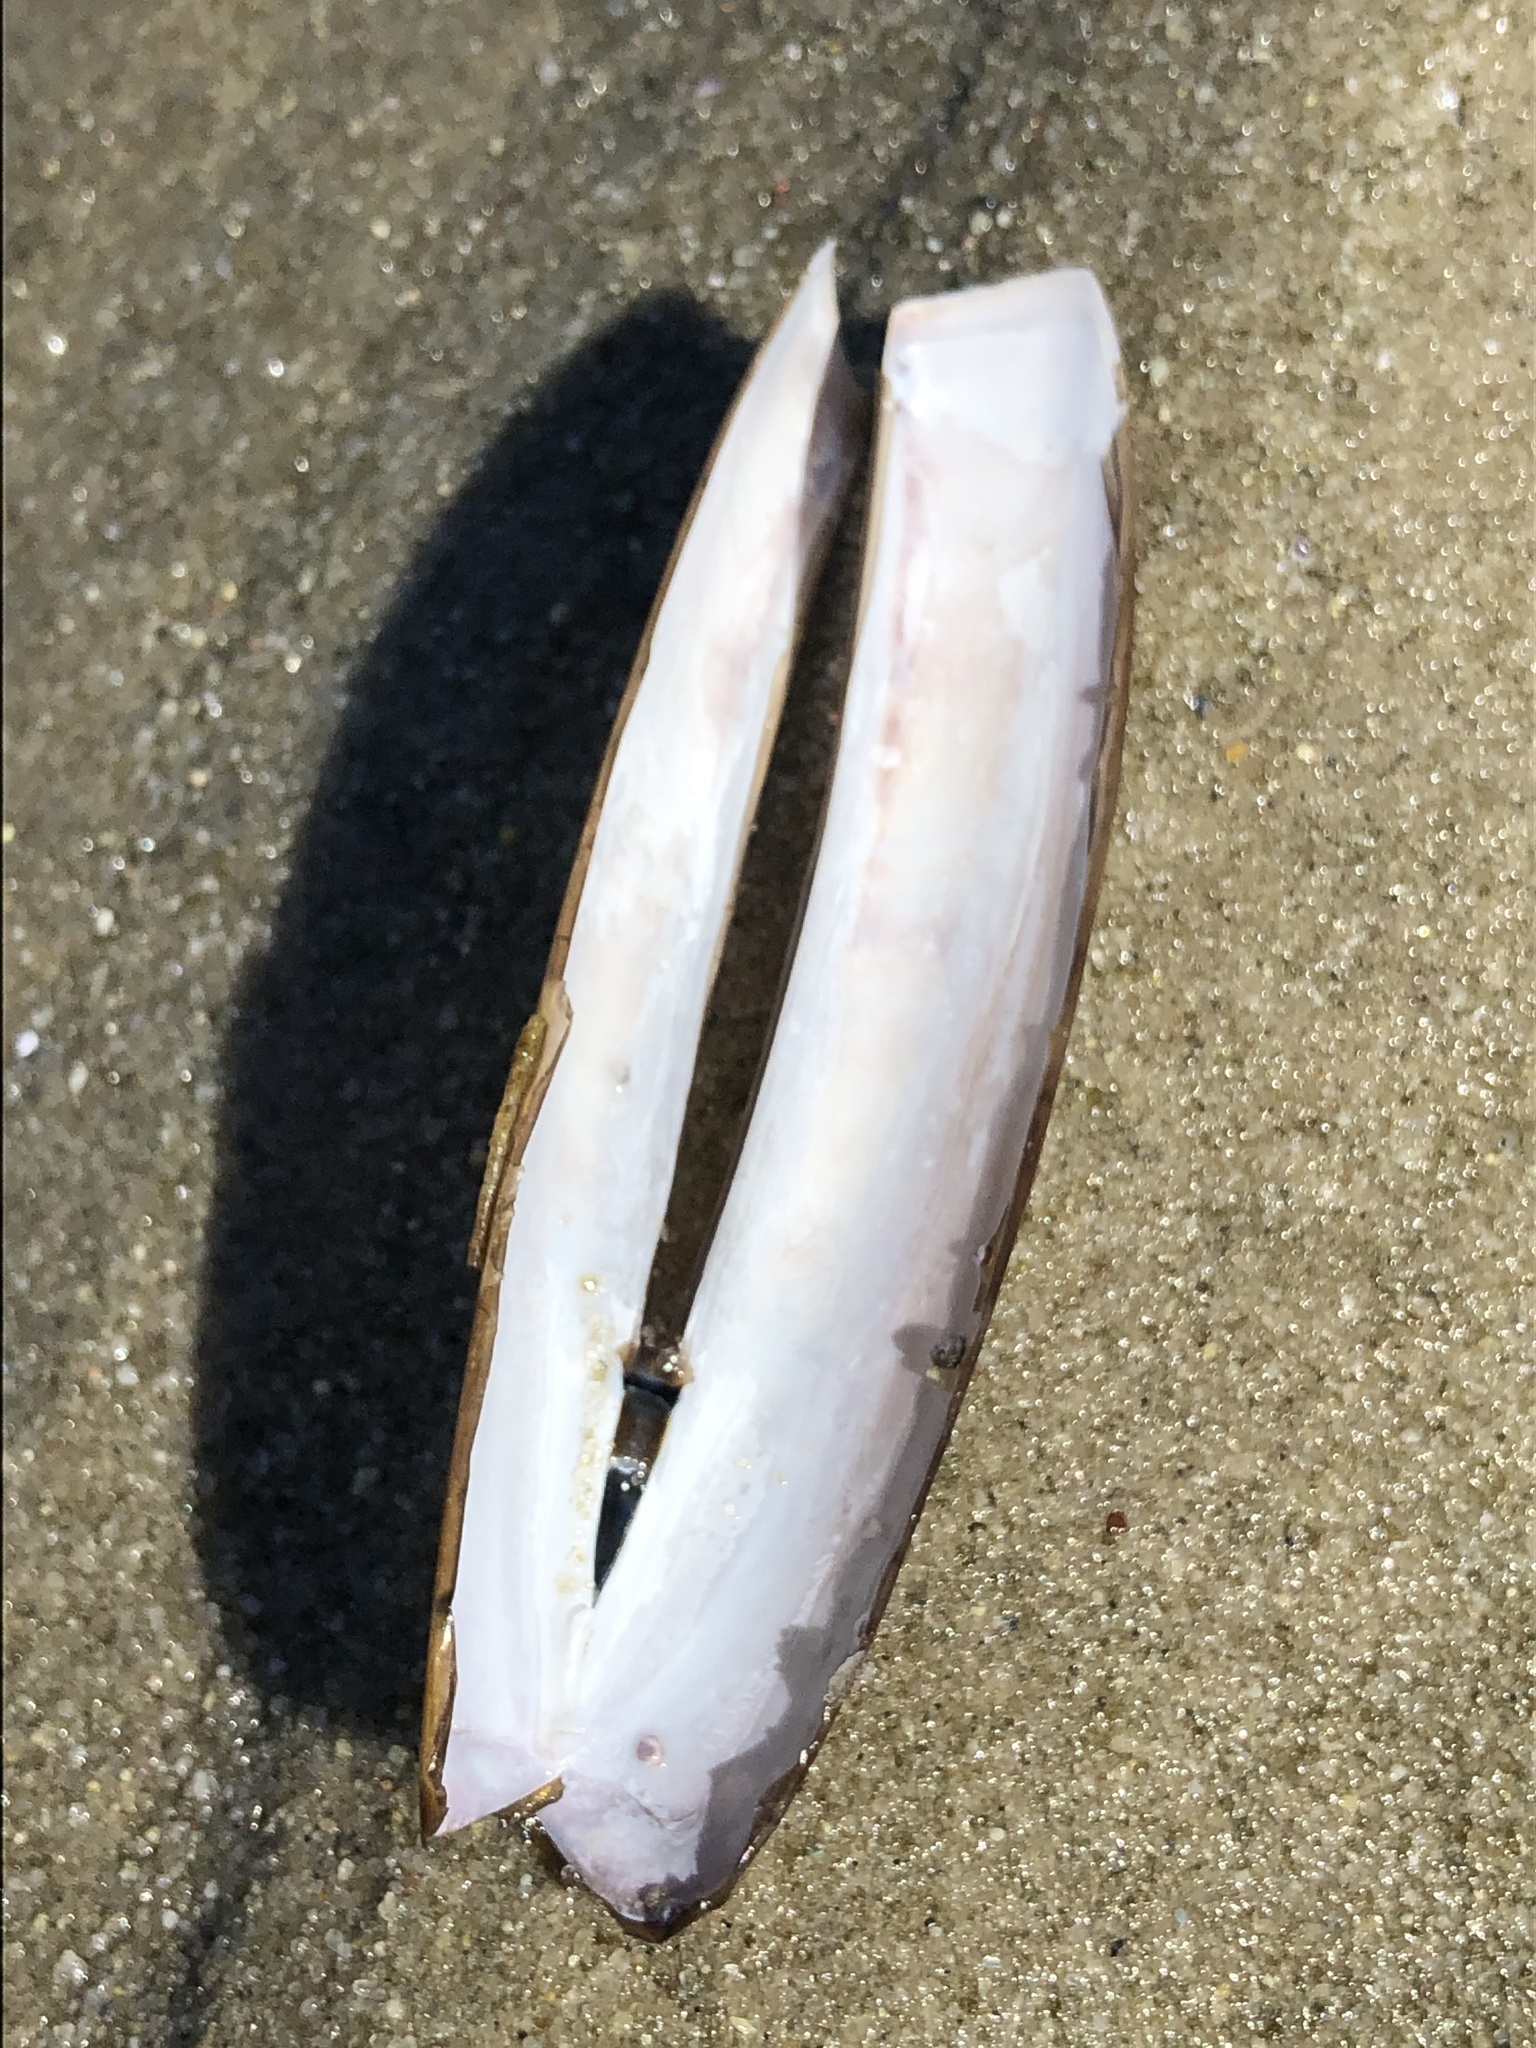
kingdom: Animalia
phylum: Mollusca
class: Bivalvia
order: Adapedonta
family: Pharidae
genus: Ensis
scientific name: Ensis leei
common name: American jack knife clam
